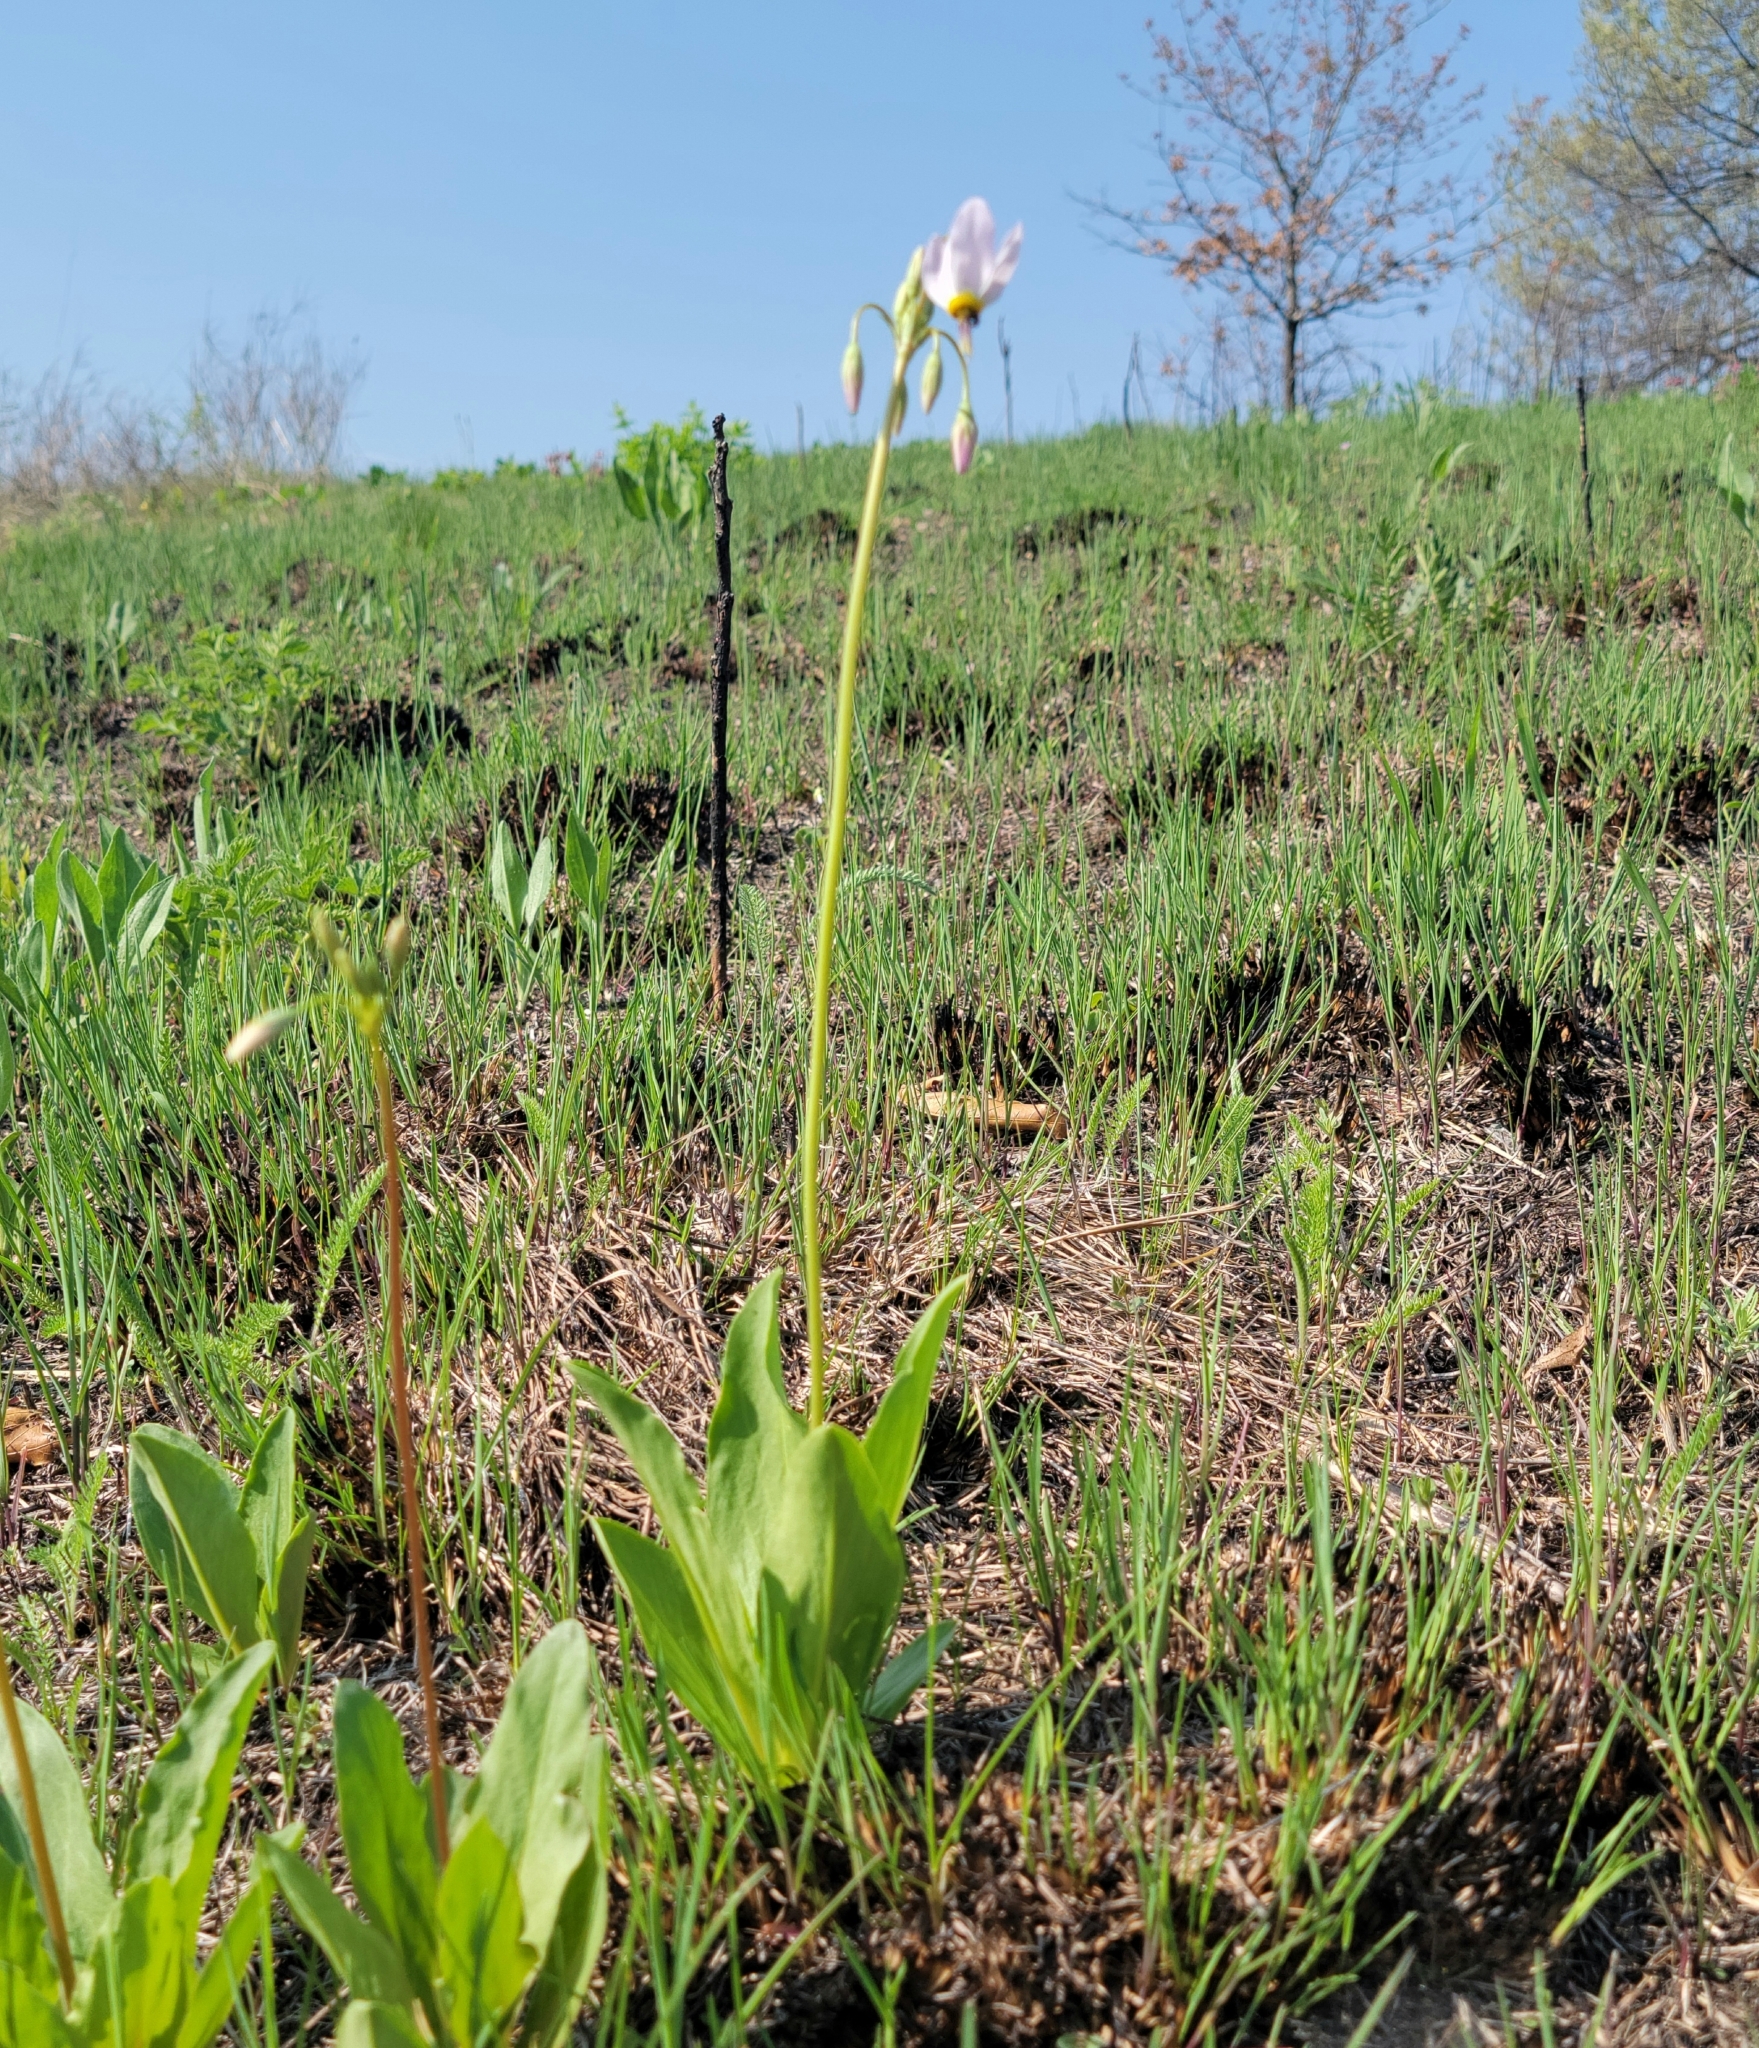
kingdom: Plantae
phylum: Tracheophyta
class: Magnoliopsida
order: Ericales
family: Primulaceae
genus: Dodecatheon
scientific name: Dodecatheon meadia
